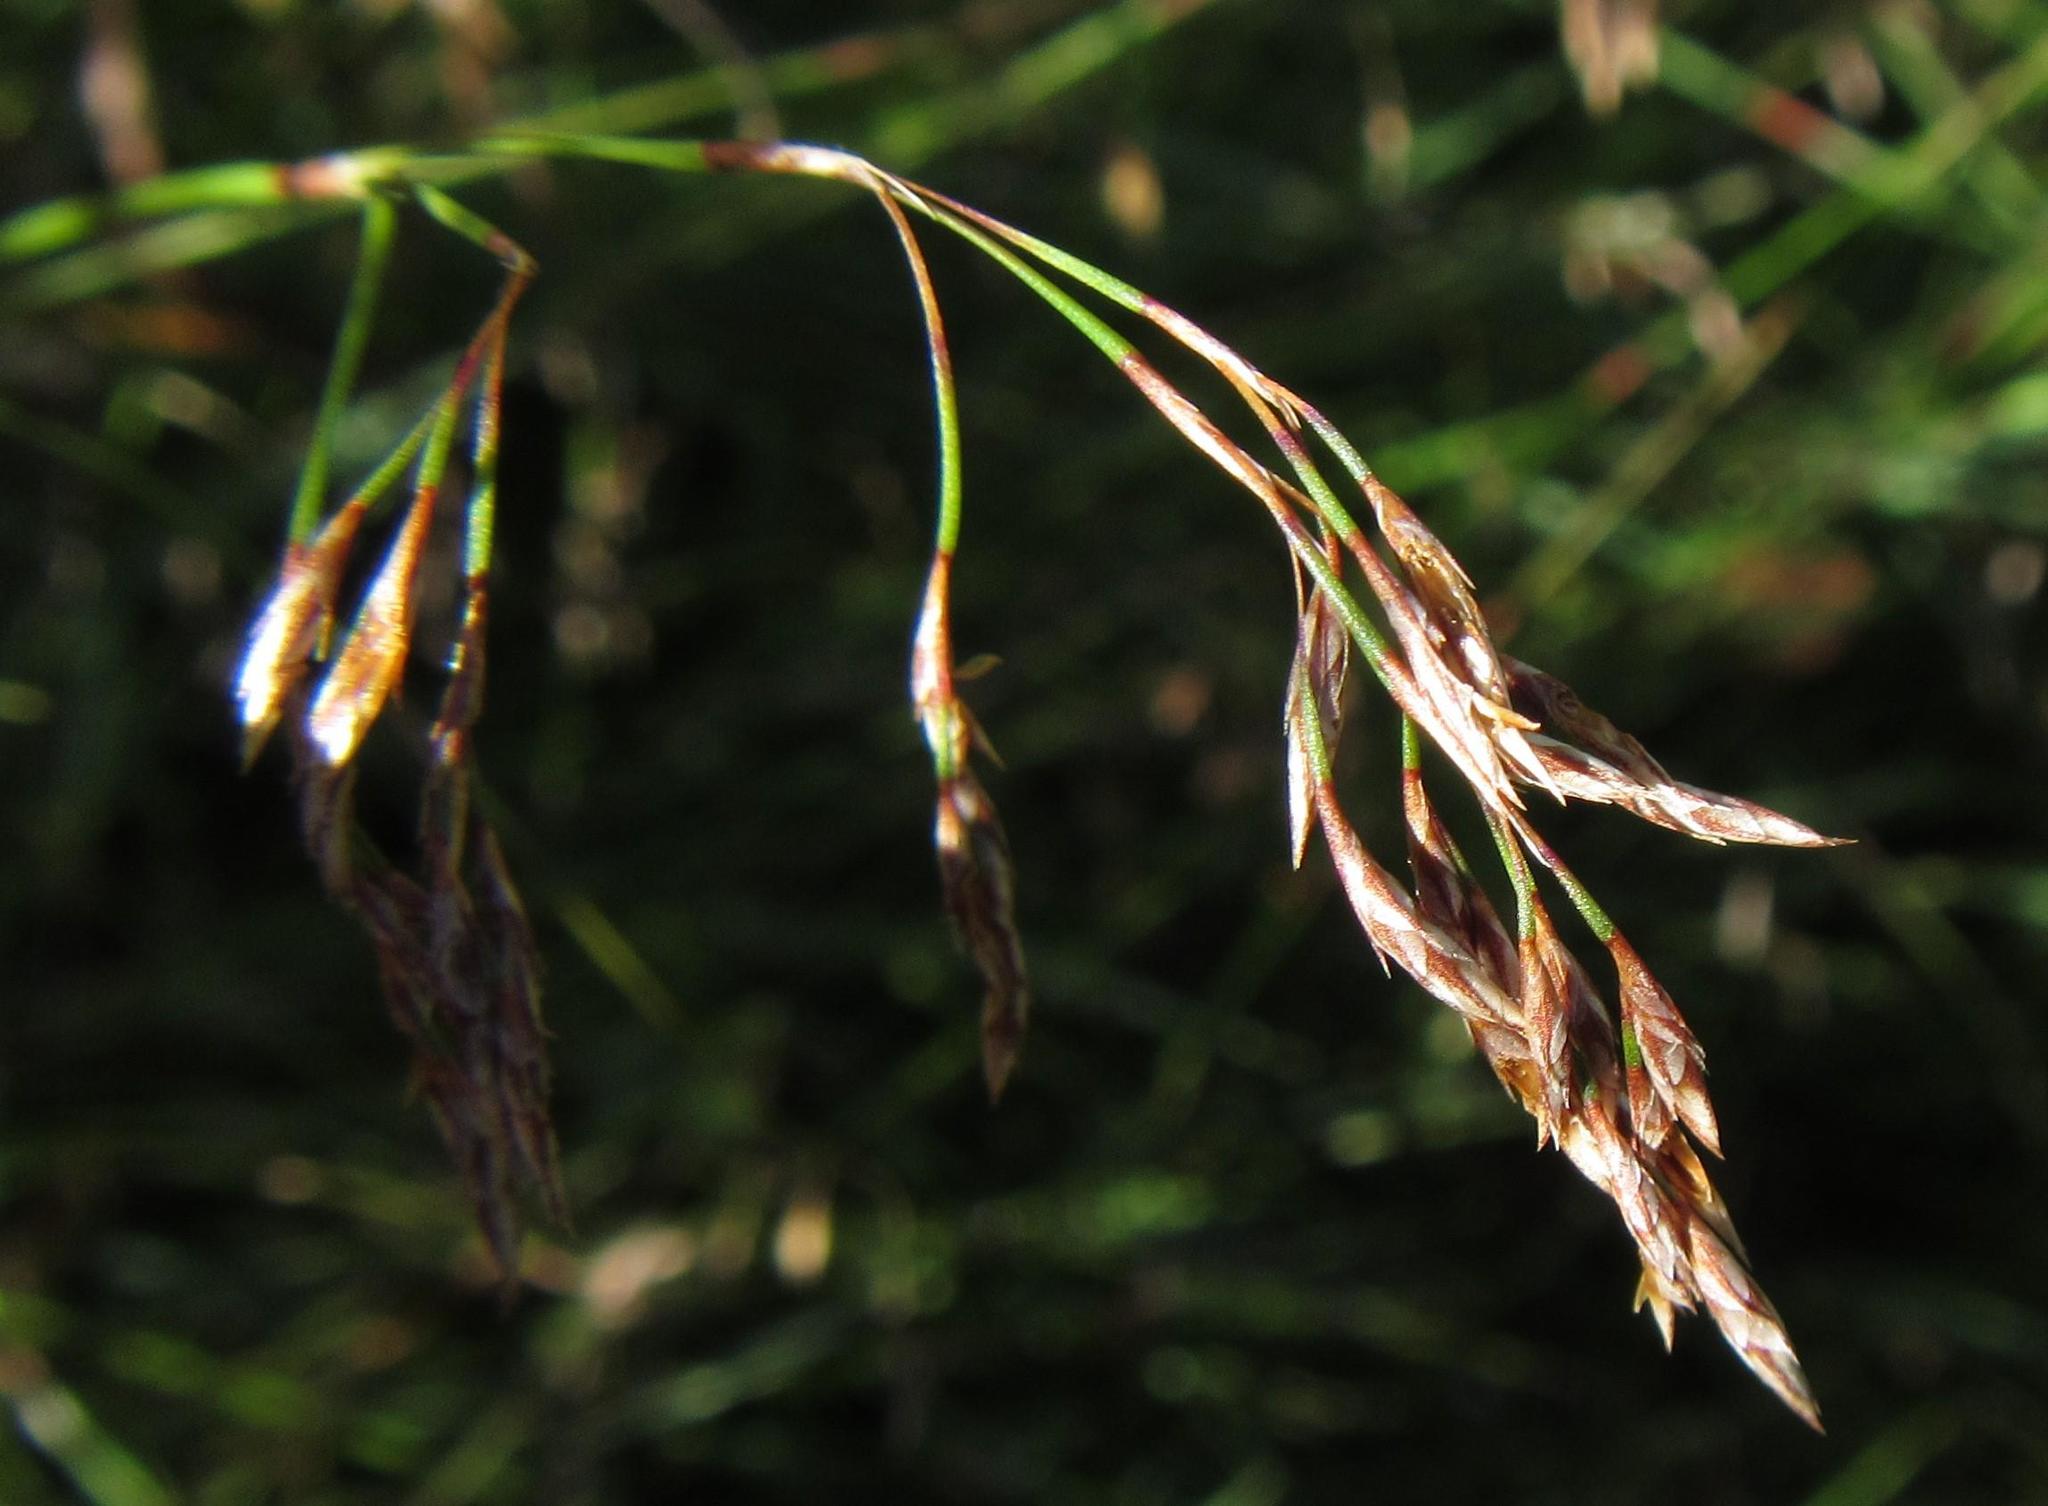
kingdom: Plantae
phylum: Tracheophyta
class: Liliopsida
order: Poales
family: Restionaceae
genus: Restio
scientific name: Restio perplexus
